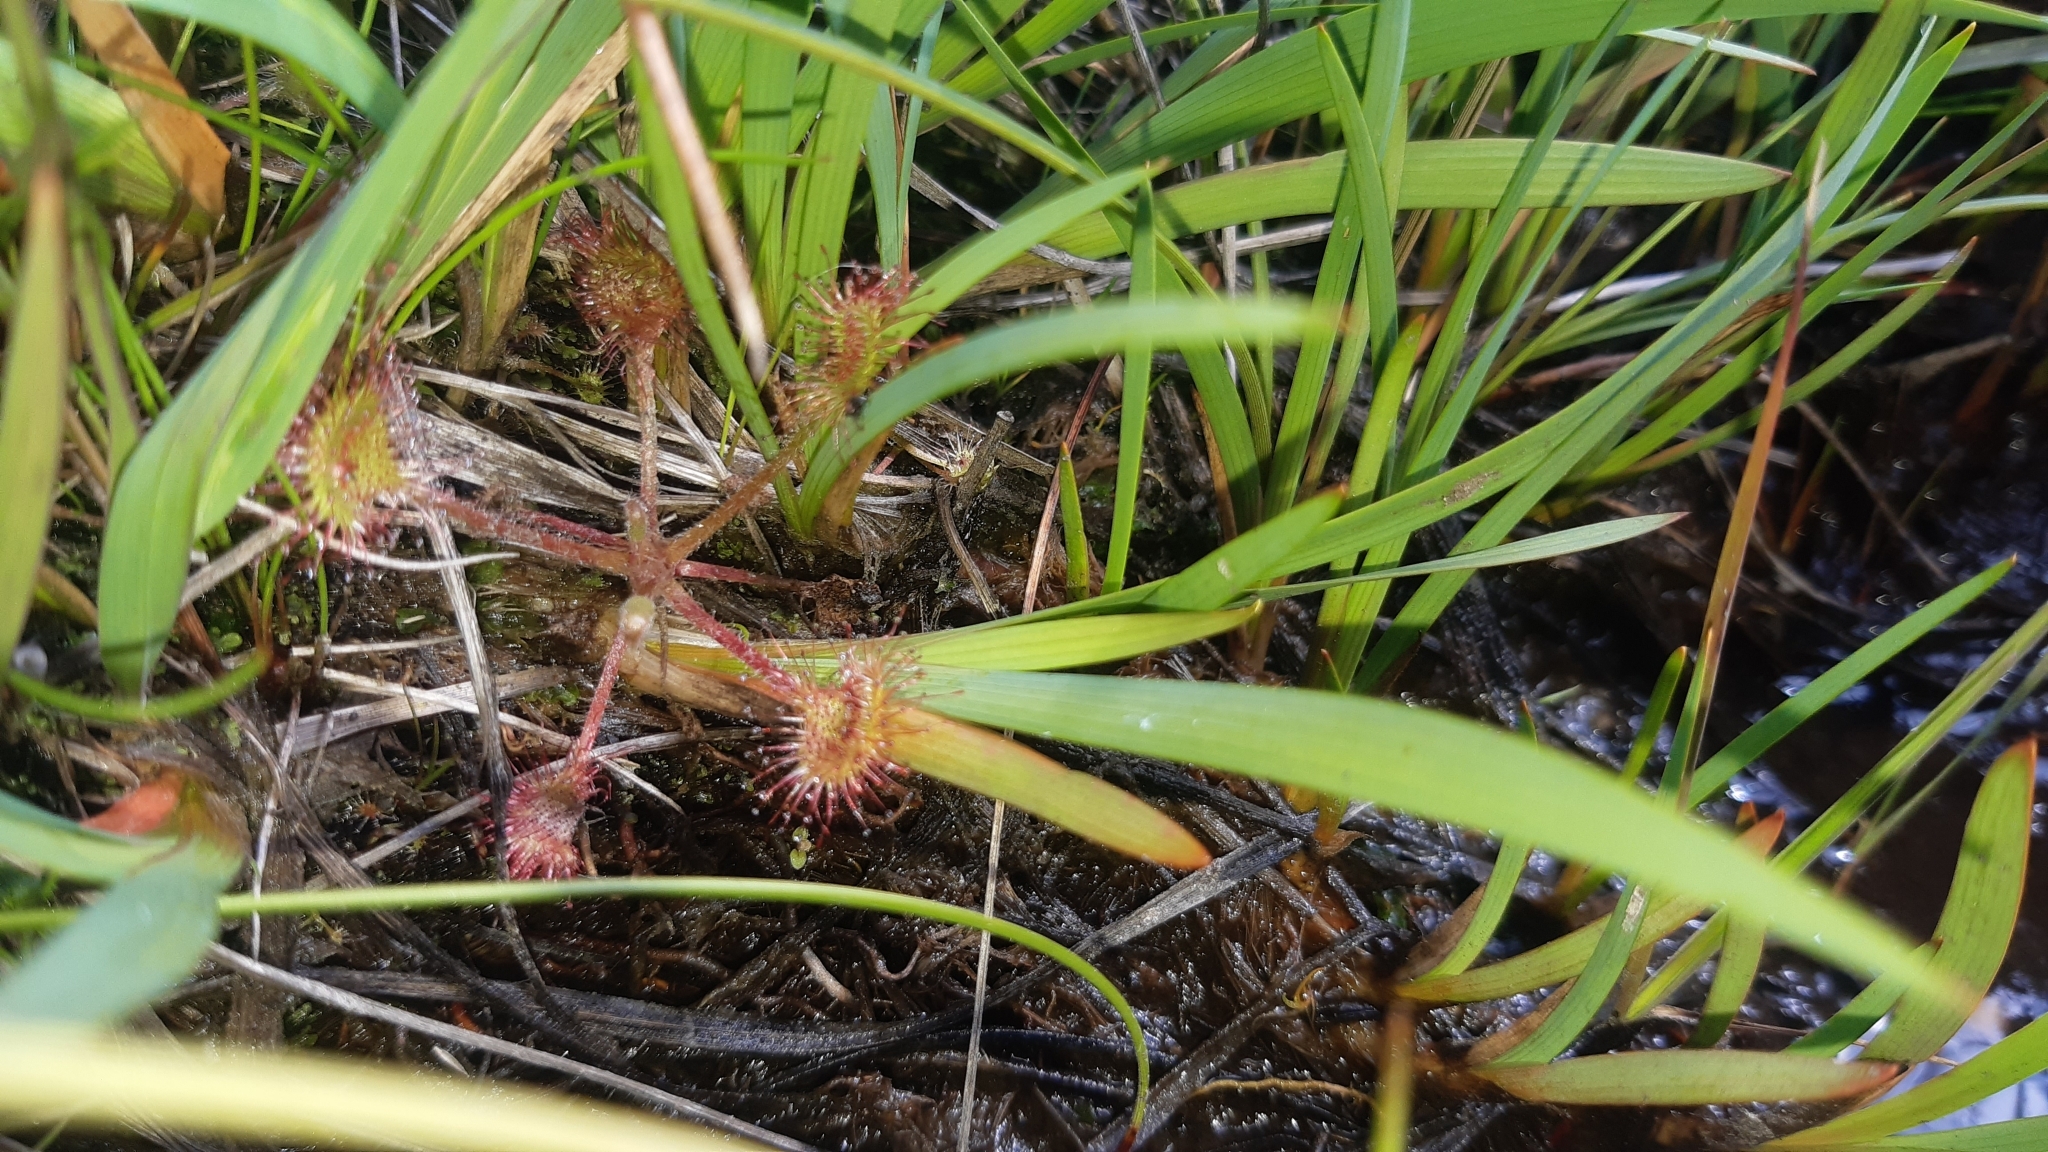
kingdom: Plantae
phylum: Tracheophyta
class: Magnoliopsida
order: Caryophyllales
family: Droseraceae
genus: Drosera
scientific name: Drosera rotundifolia
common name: Round-leaved sundew
